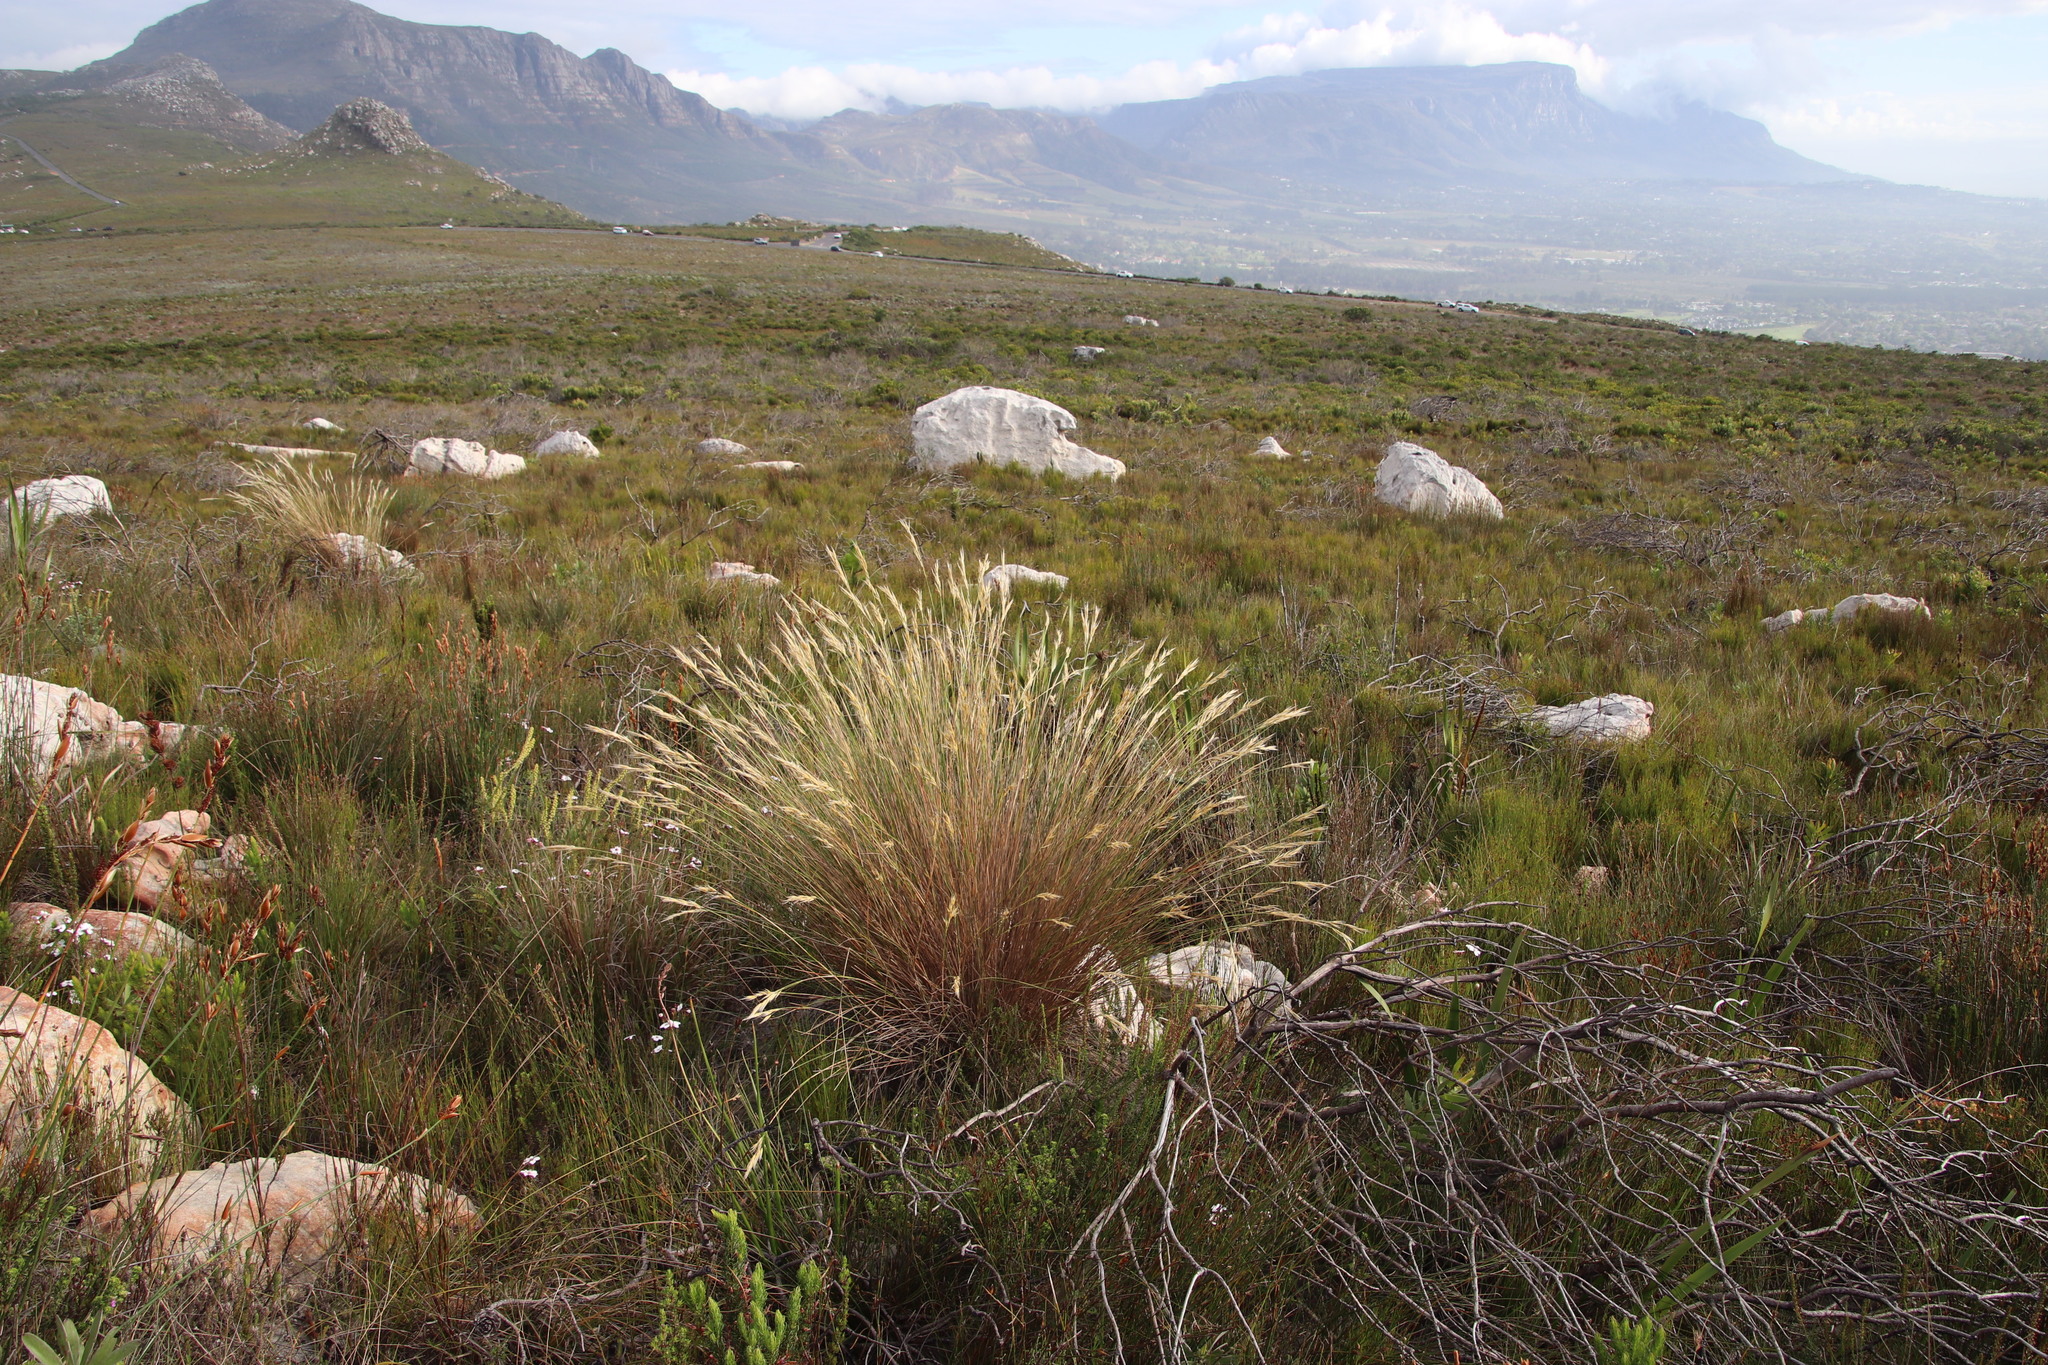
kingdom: Plantae
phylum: Tracheophyta
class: Liliopsida
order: Poales
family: Poaceae
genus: Tenaxia
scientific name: Tenaxia stricta
